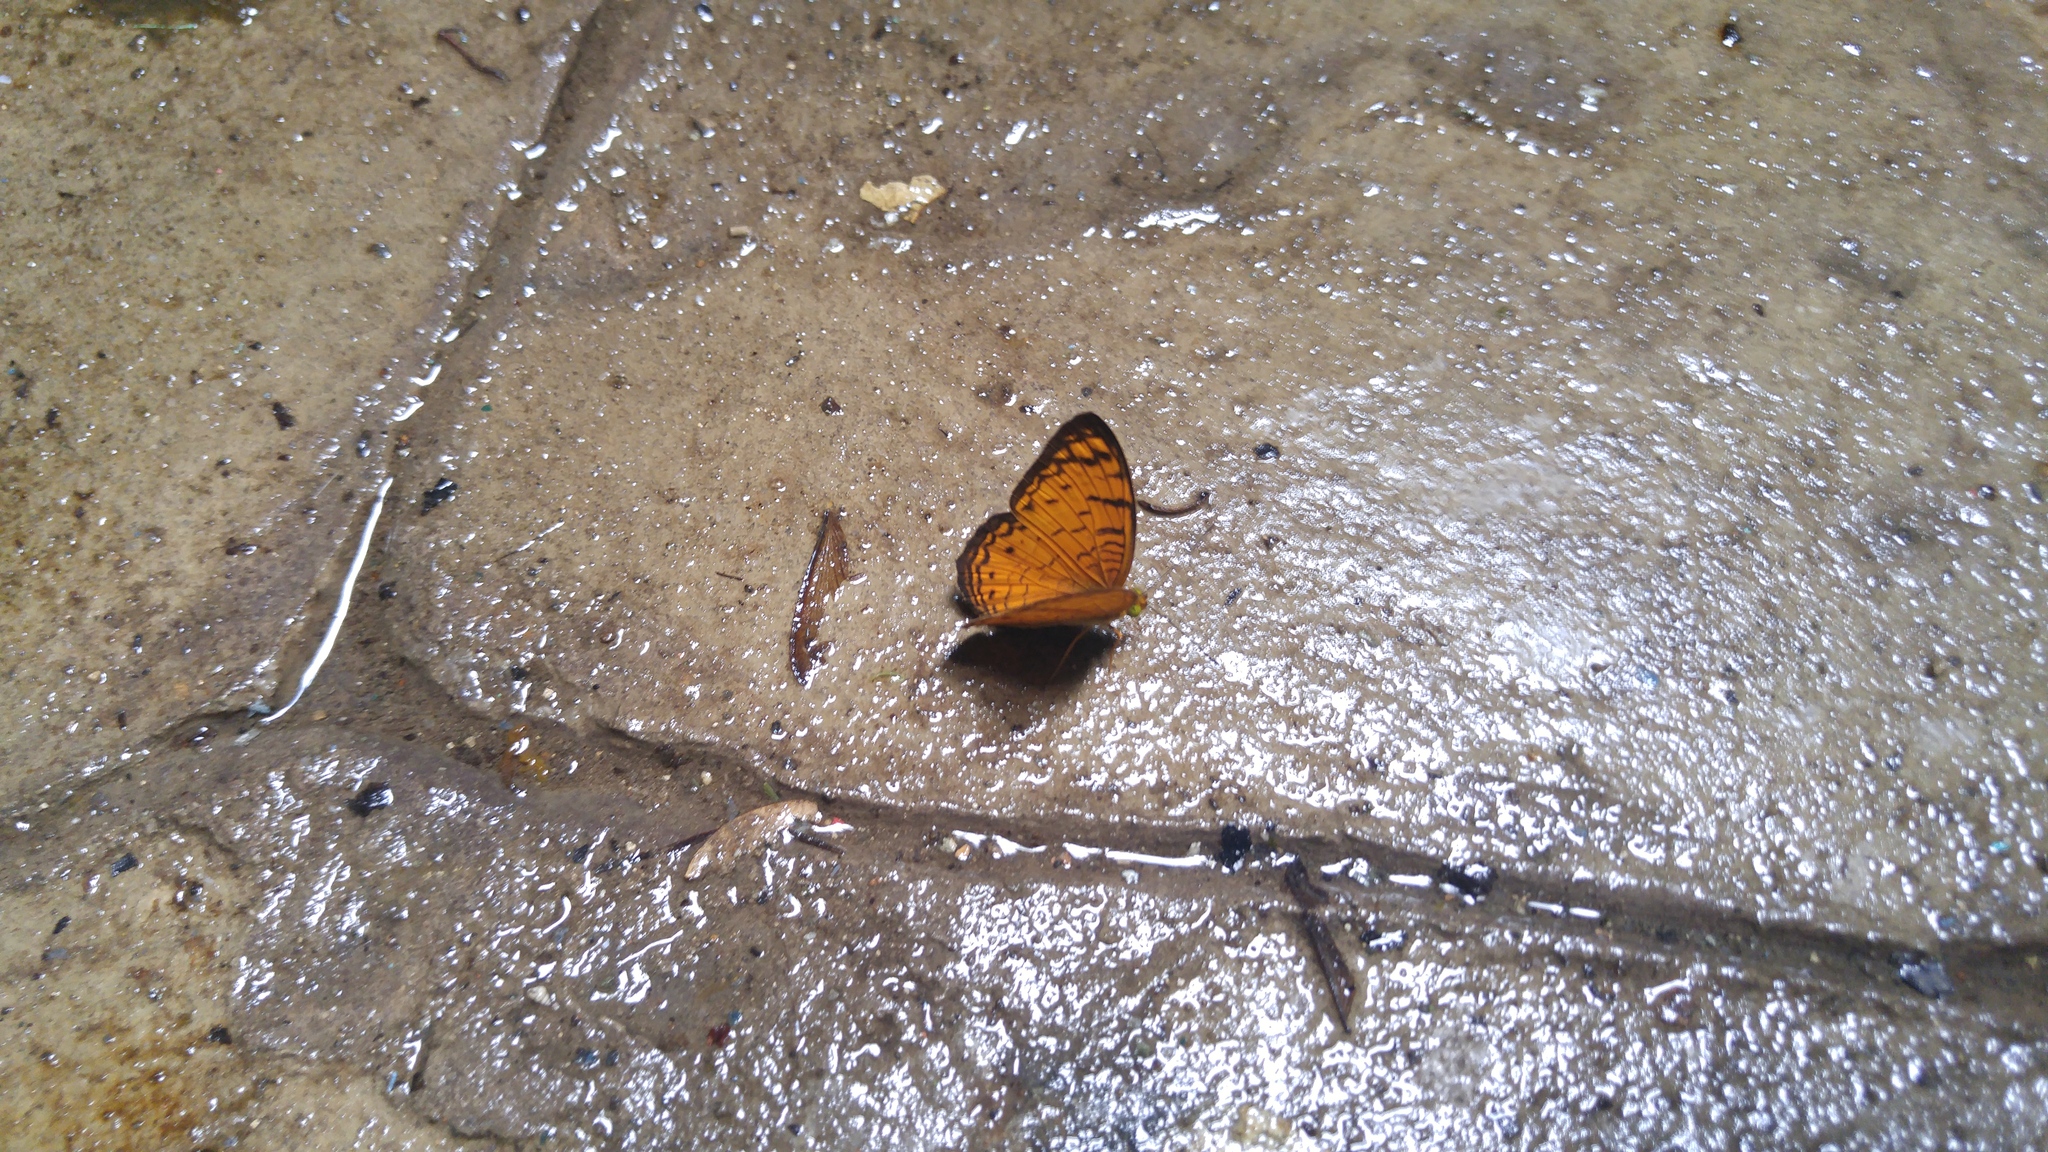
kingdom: Animalia
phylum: Arthropoda
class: Insecta
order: Lepidoptera
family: Nymphalidae
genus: Phalanta
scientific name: Phalanta alcippe
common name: Small leopard
